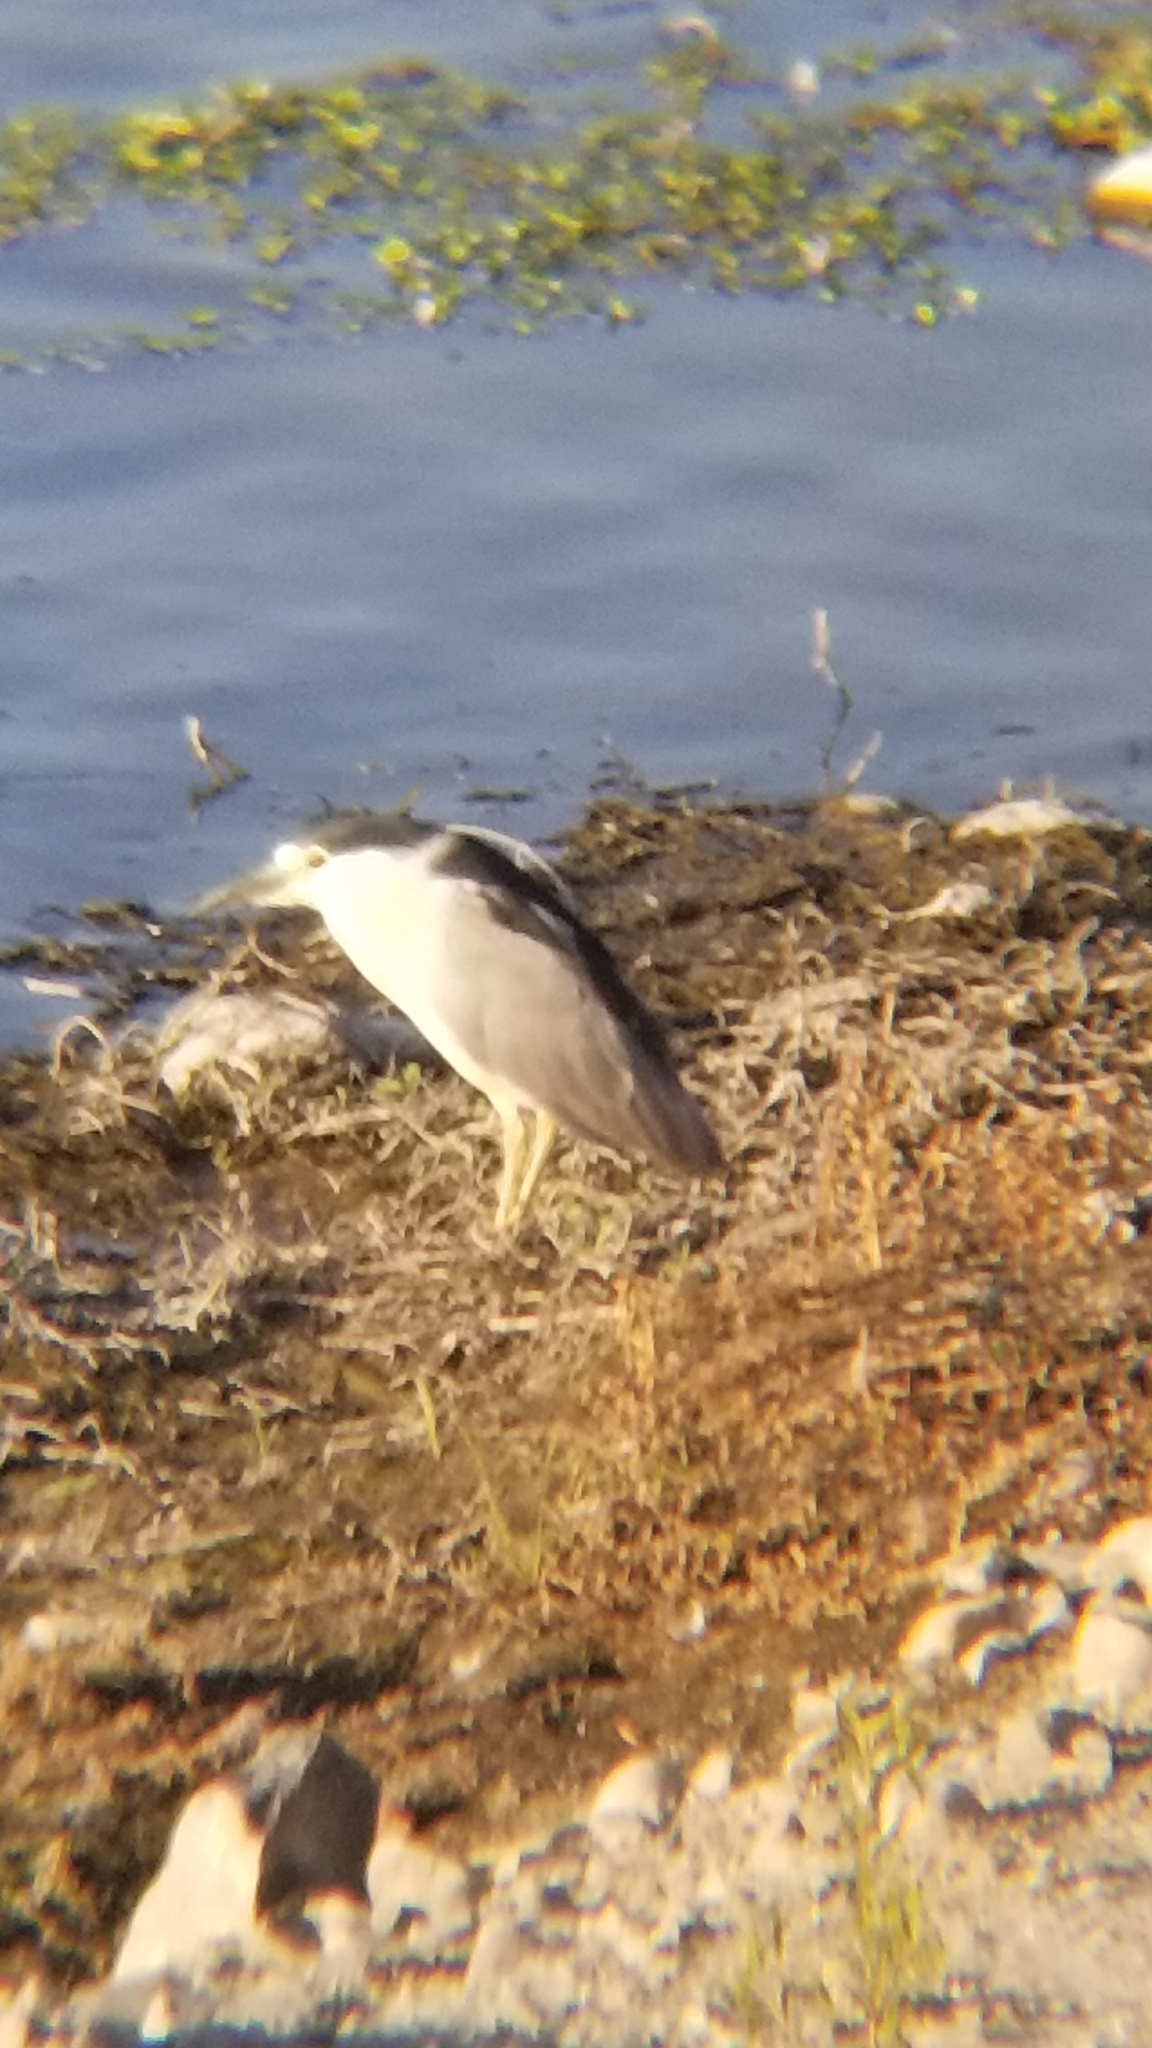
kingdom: Animalia
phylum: Chordata
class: Aves
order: Pelecaniformes
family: Ardeidae
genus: Nycticorax
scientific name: Nycticorax nycticorax
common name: Black-crowned night heron
